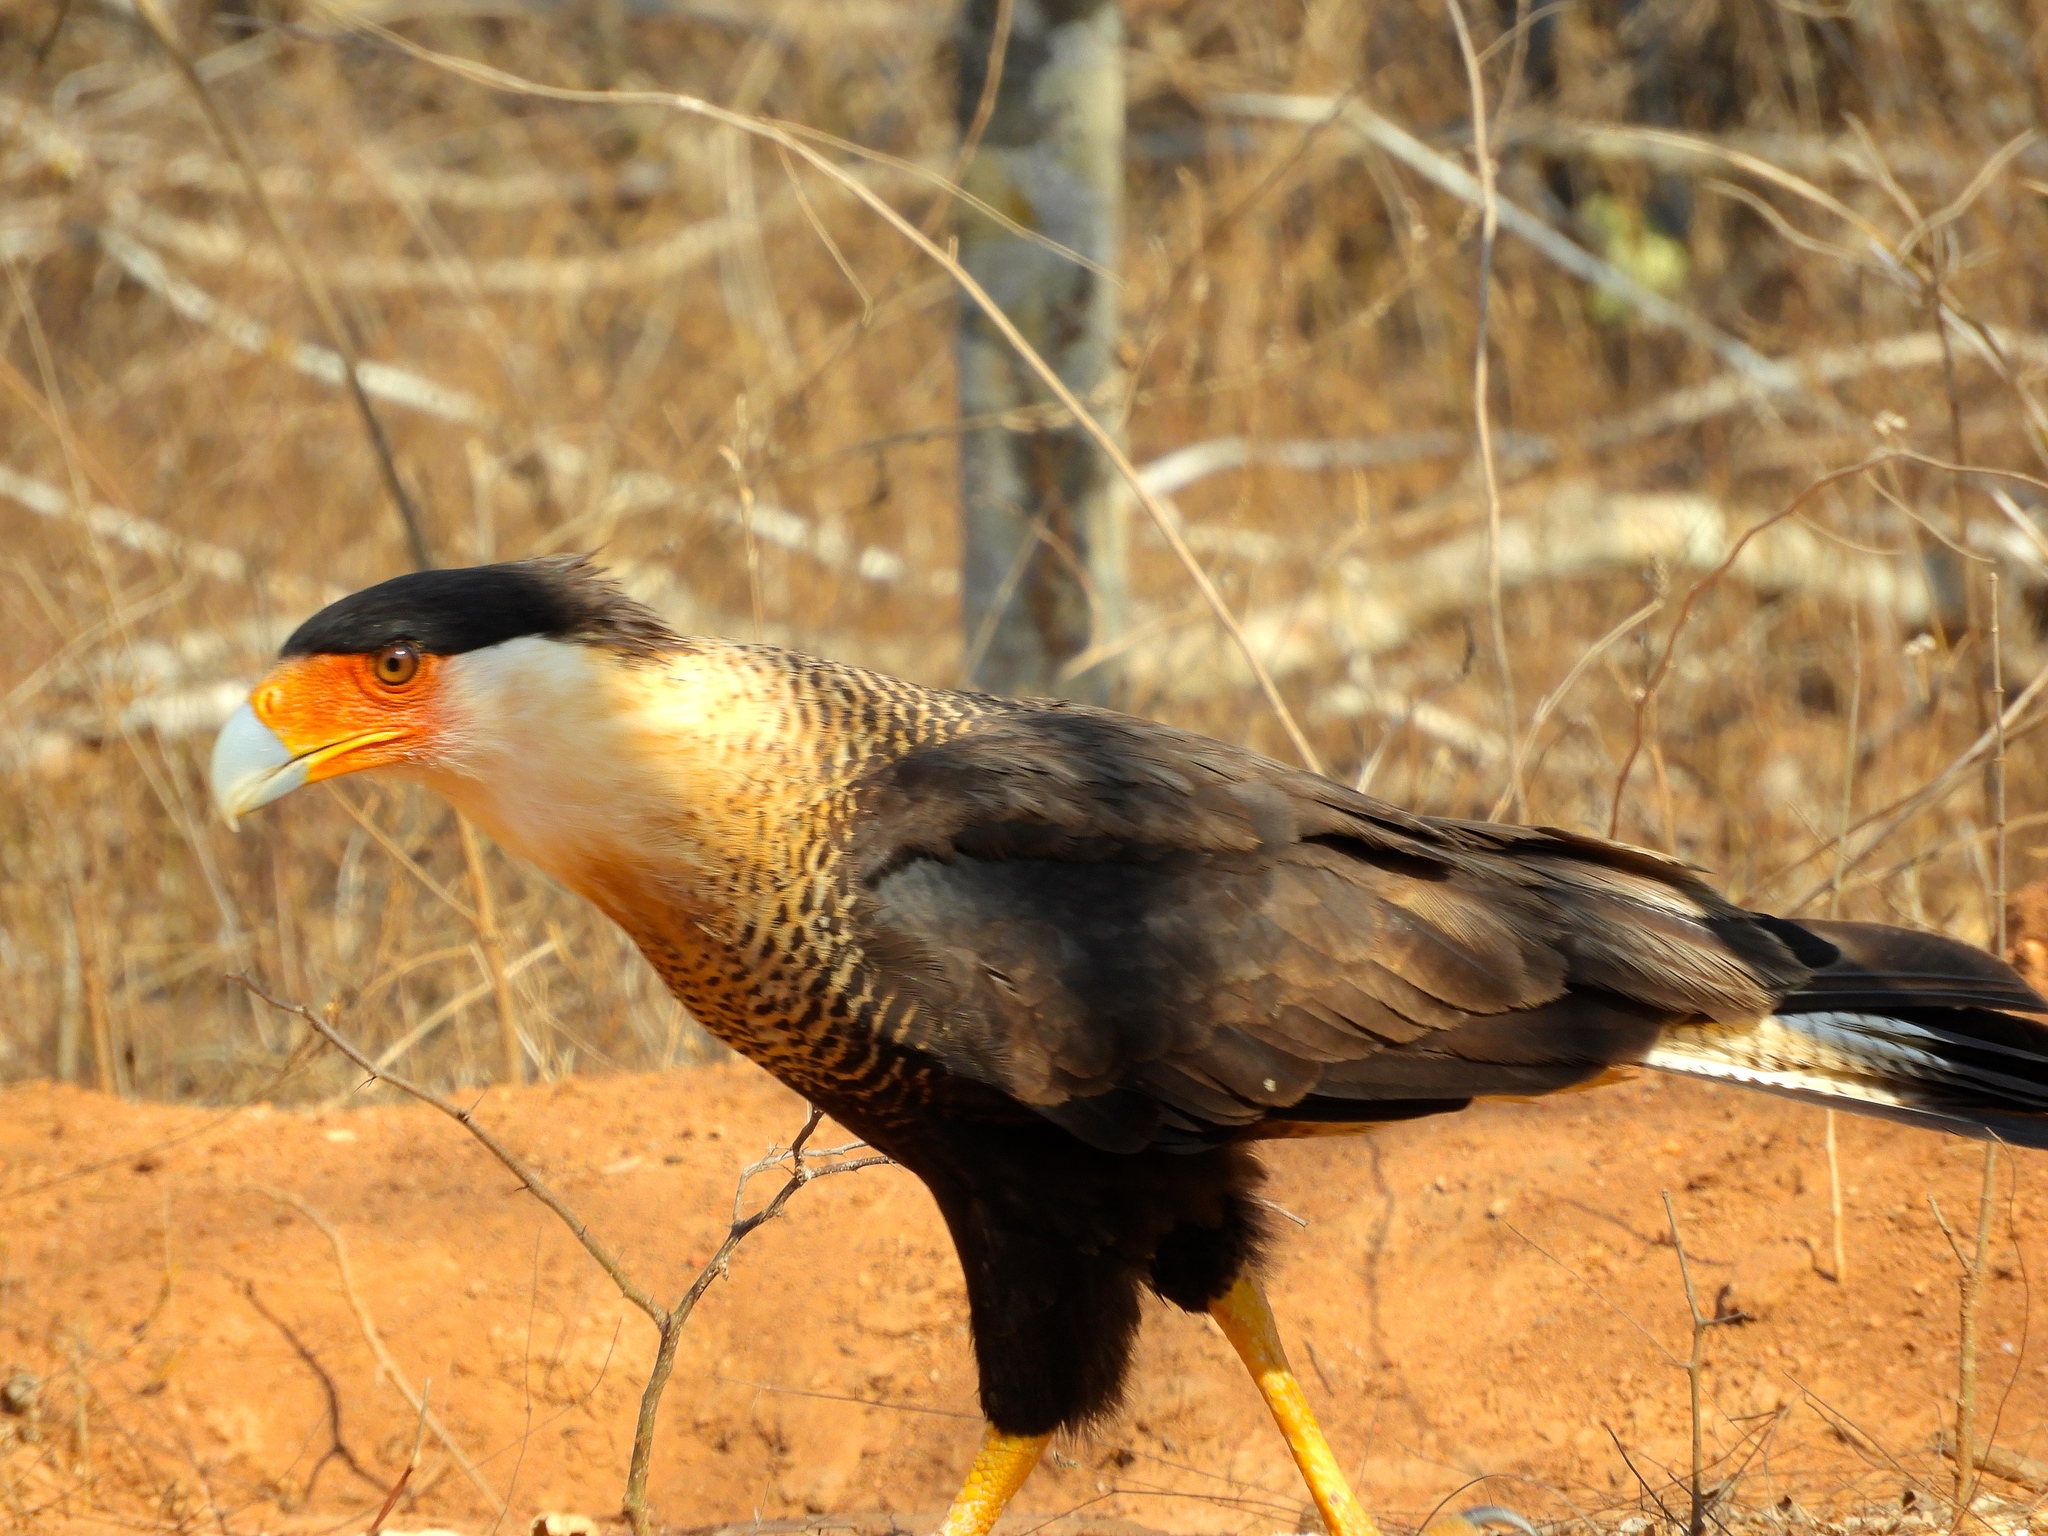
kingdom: Animalia
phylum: Chordata
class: Aves
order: Falconiformes
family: Falconidae
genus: Caracara
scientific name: Caracara plancus
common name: Southern caracara
